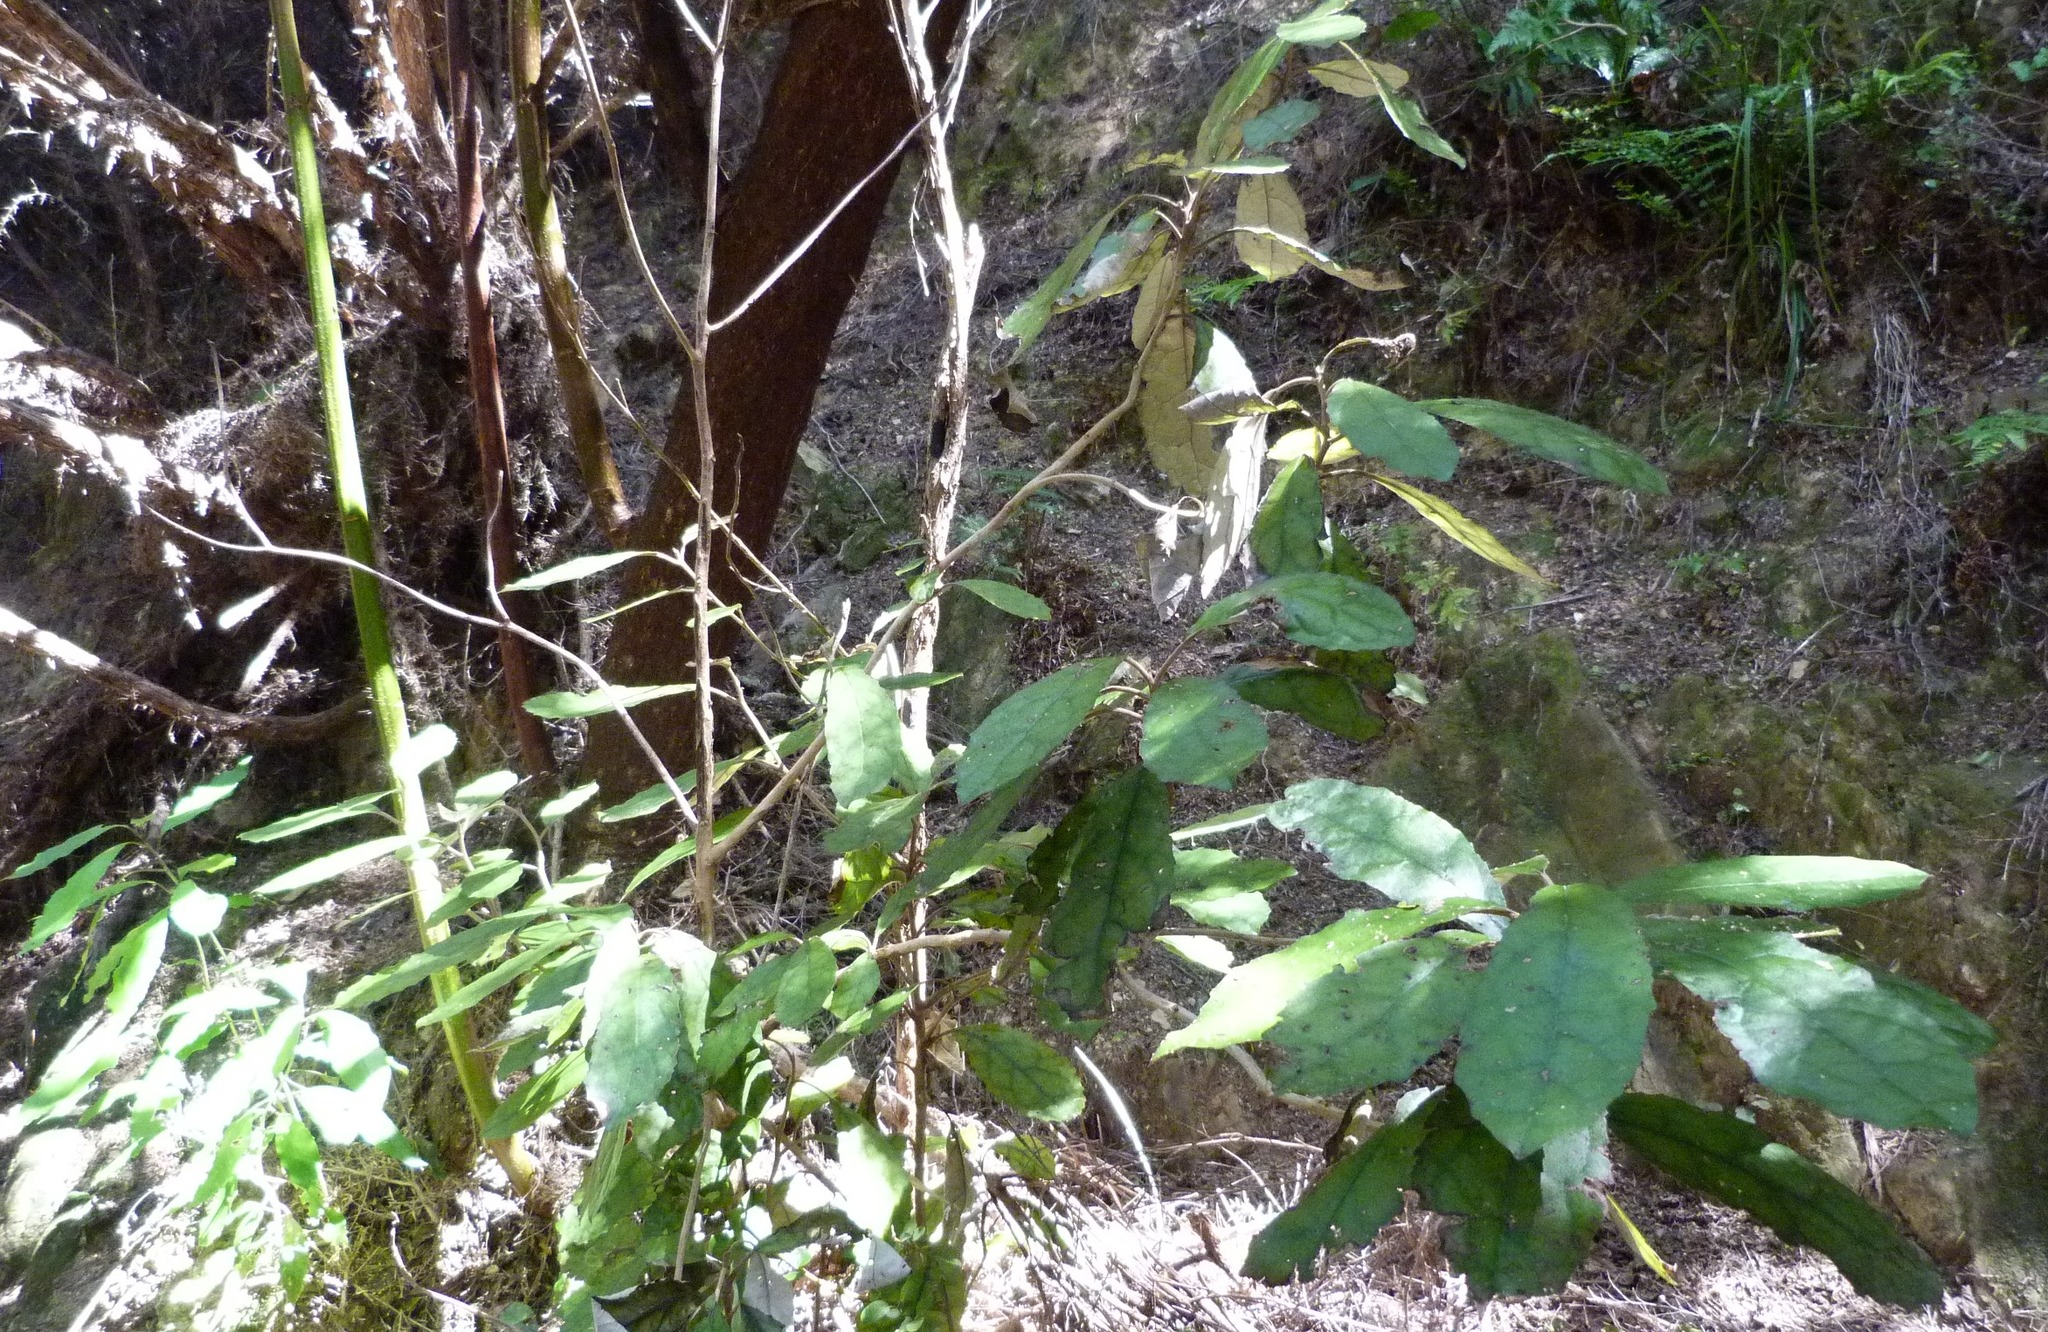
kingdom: Plantae
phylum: Tracheophyta
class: Magnoliopsida
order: Asterales
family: Asteraceae
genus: Olearia
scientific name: Olearia rani
